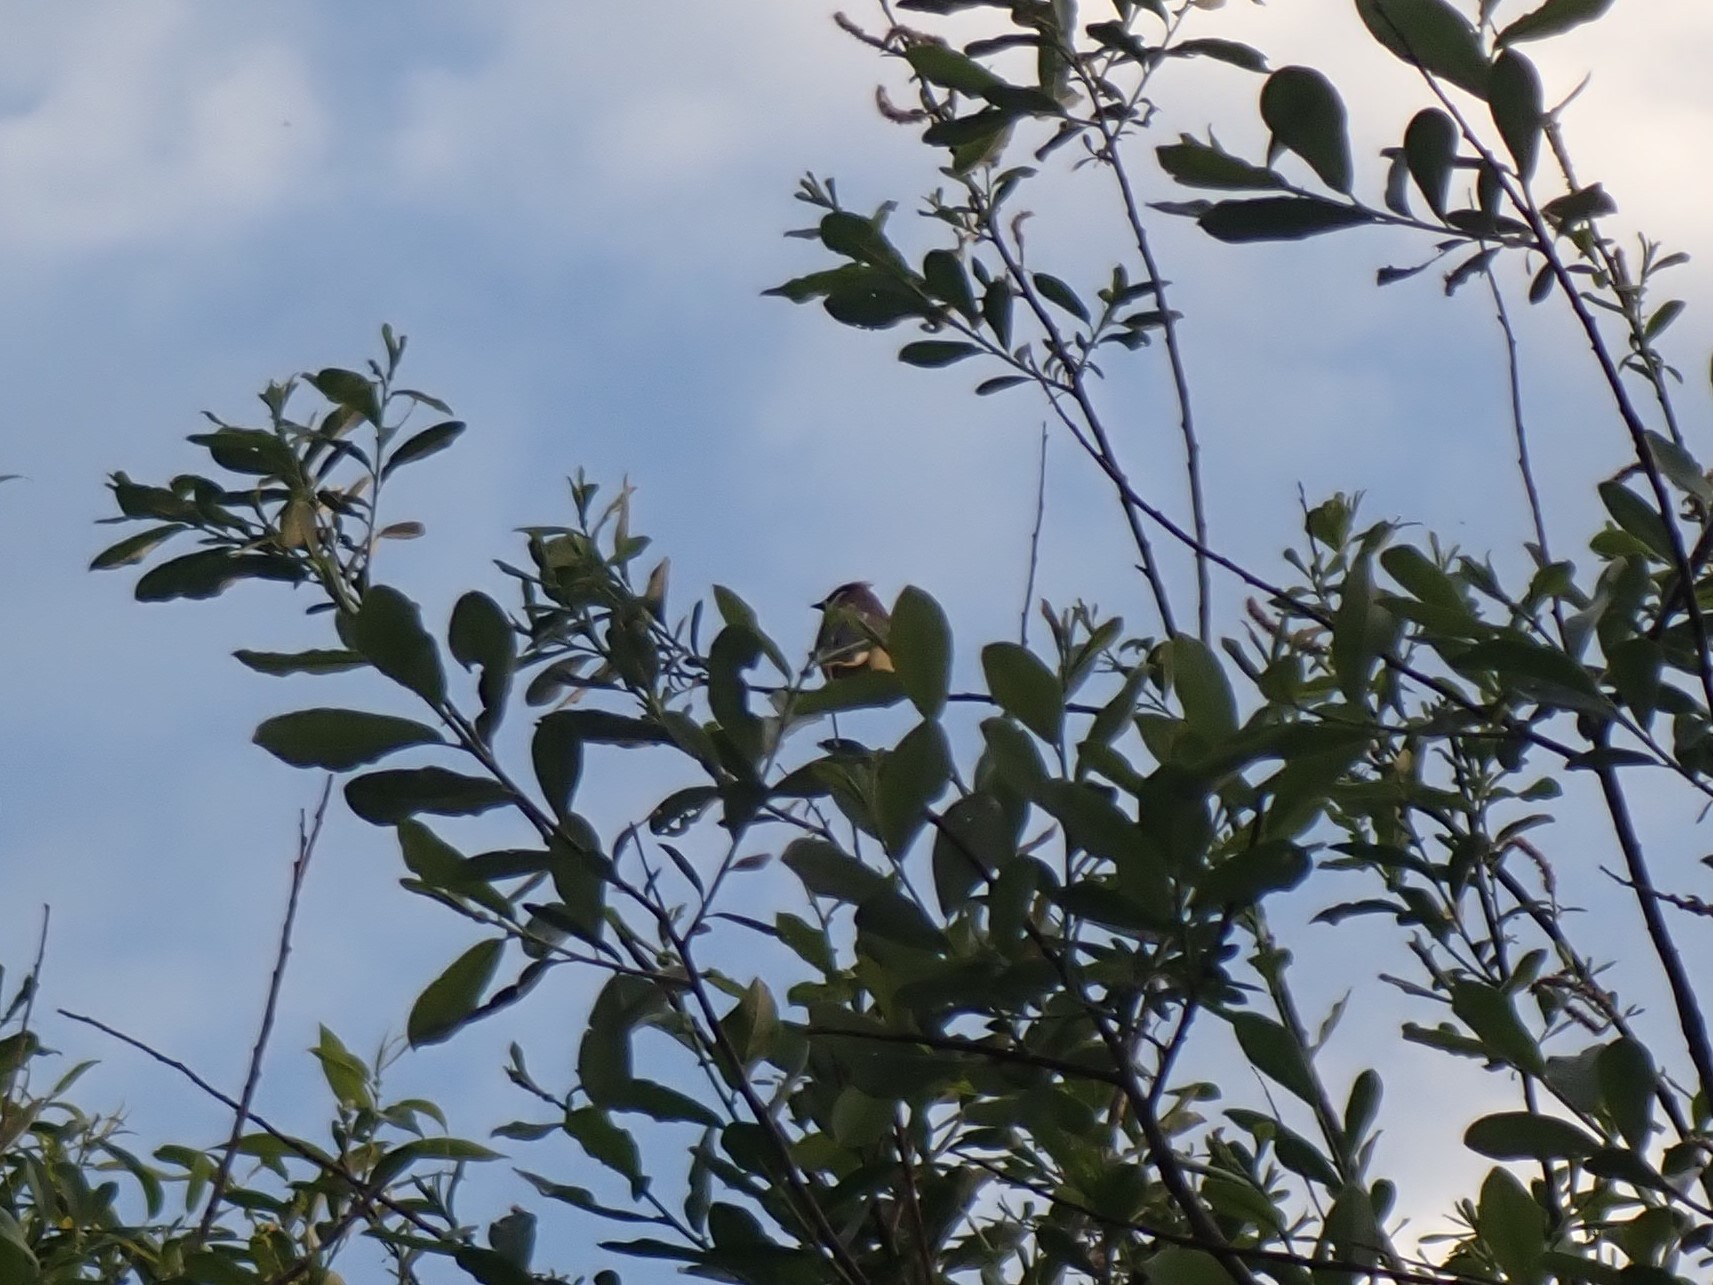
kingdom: Animalia
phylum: Chordata
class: Aves
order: Passeriformes
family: Bombycillidae
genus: Bombycilla
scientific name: Bombycilla cedrorum
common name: Cedar waxwing
